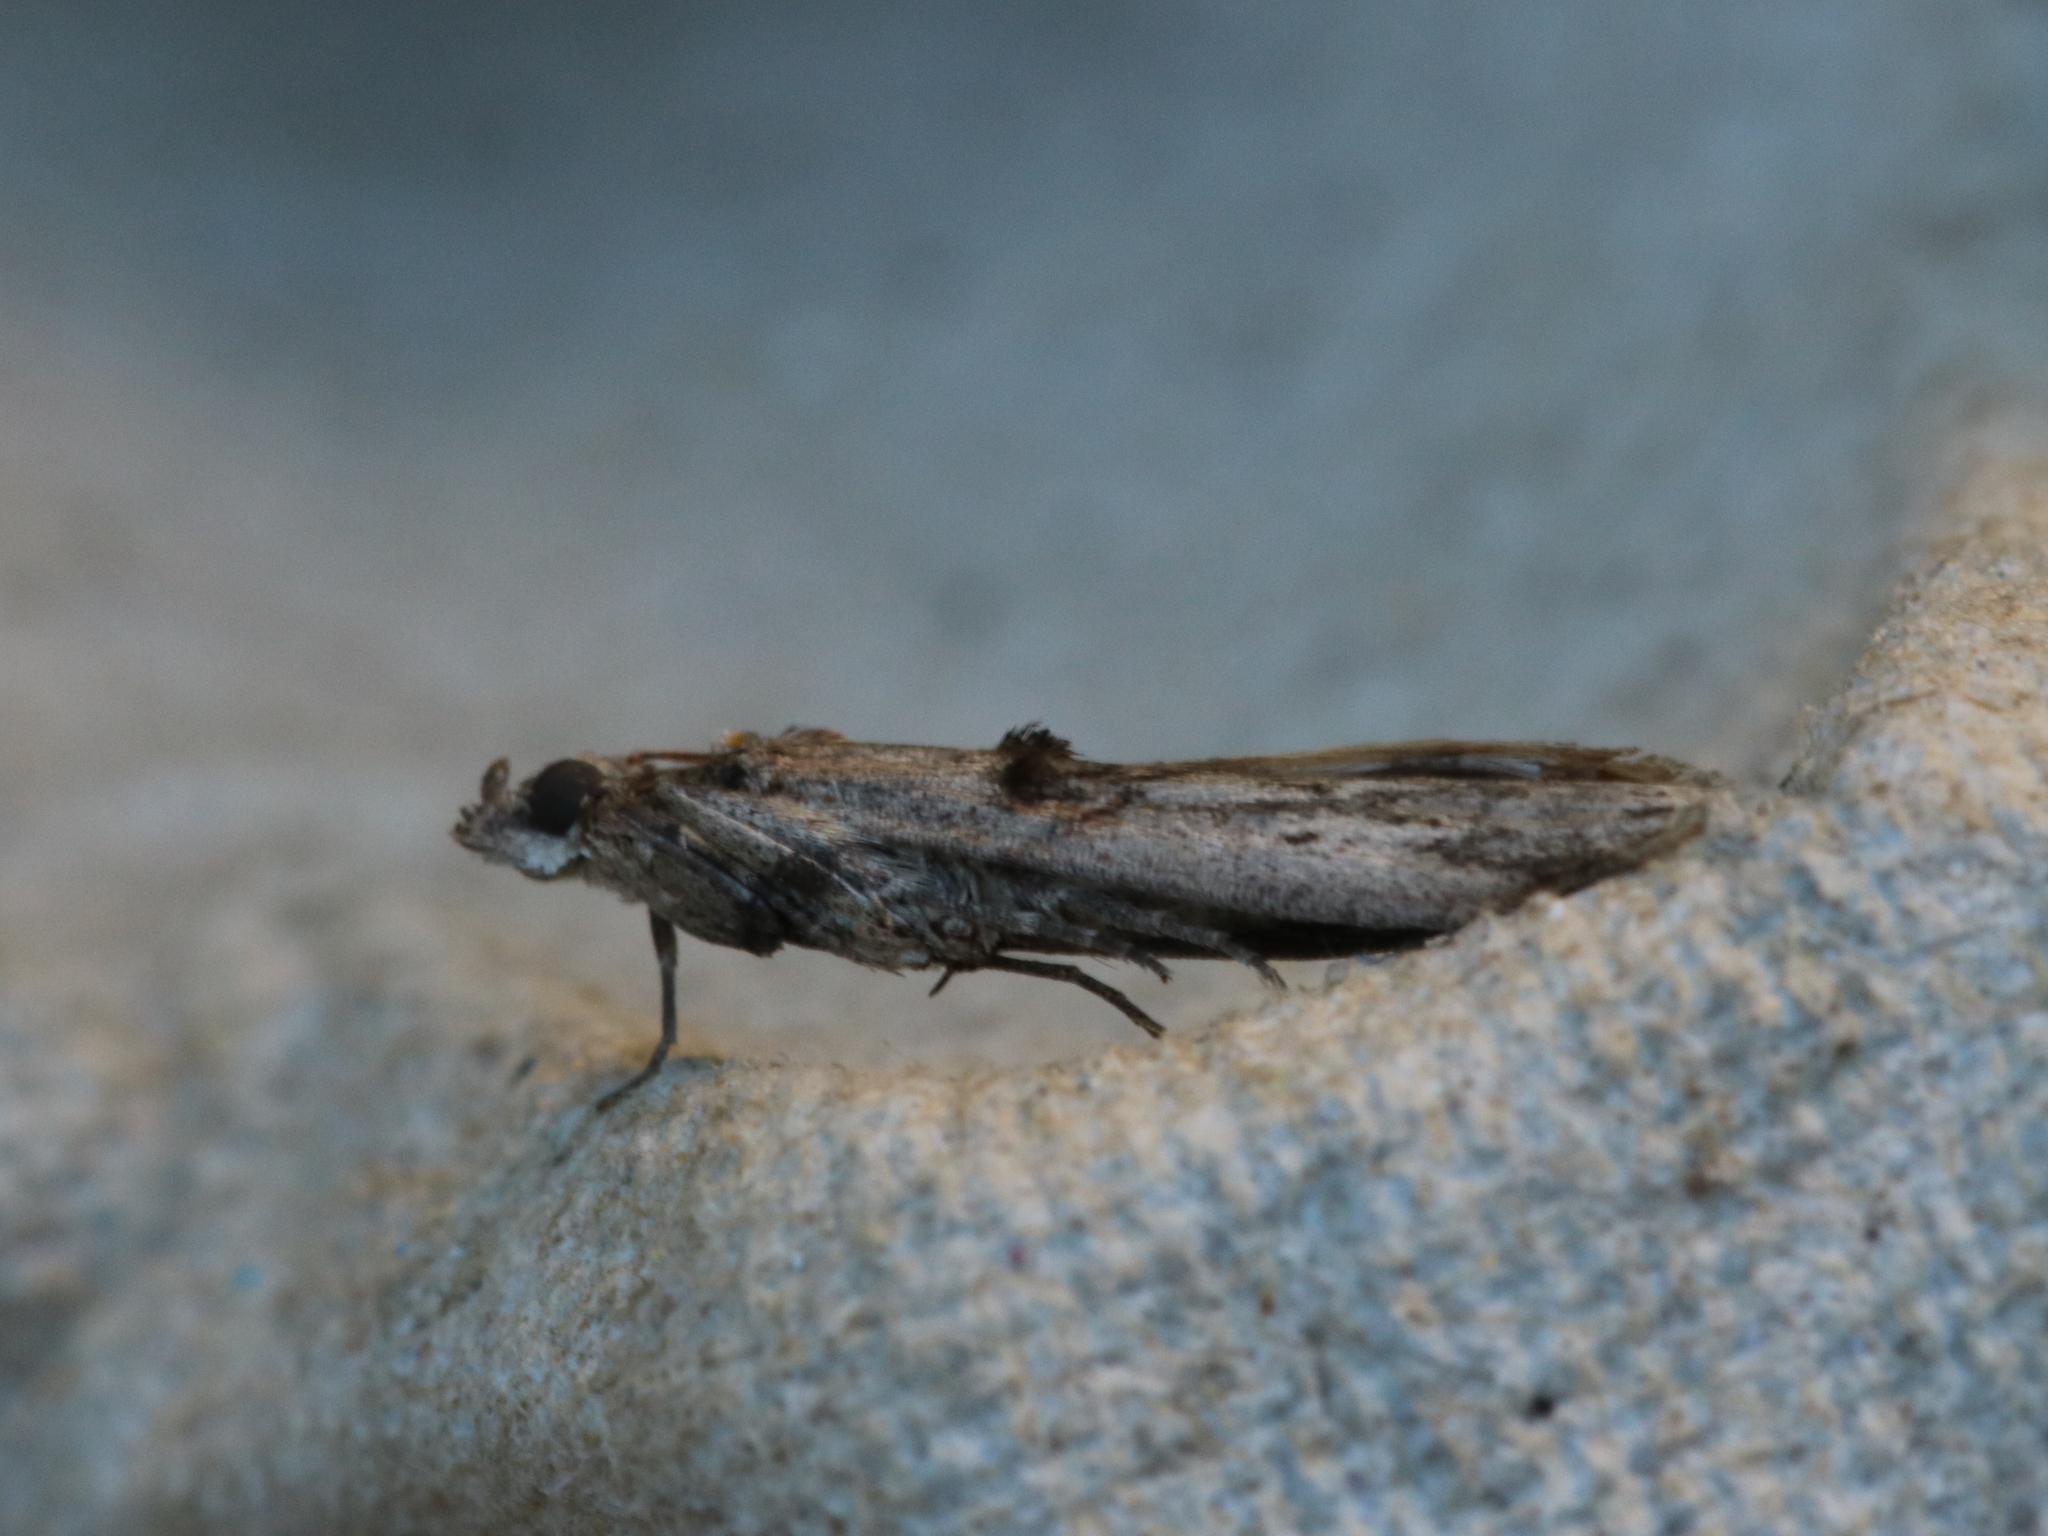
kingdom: Animalia
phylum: Arthropoda
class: Insecta
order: Lepidoptera
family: Pyralidae
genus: Nephopterix
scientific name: Nephopterix angustella
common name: Spindle knot-horn
